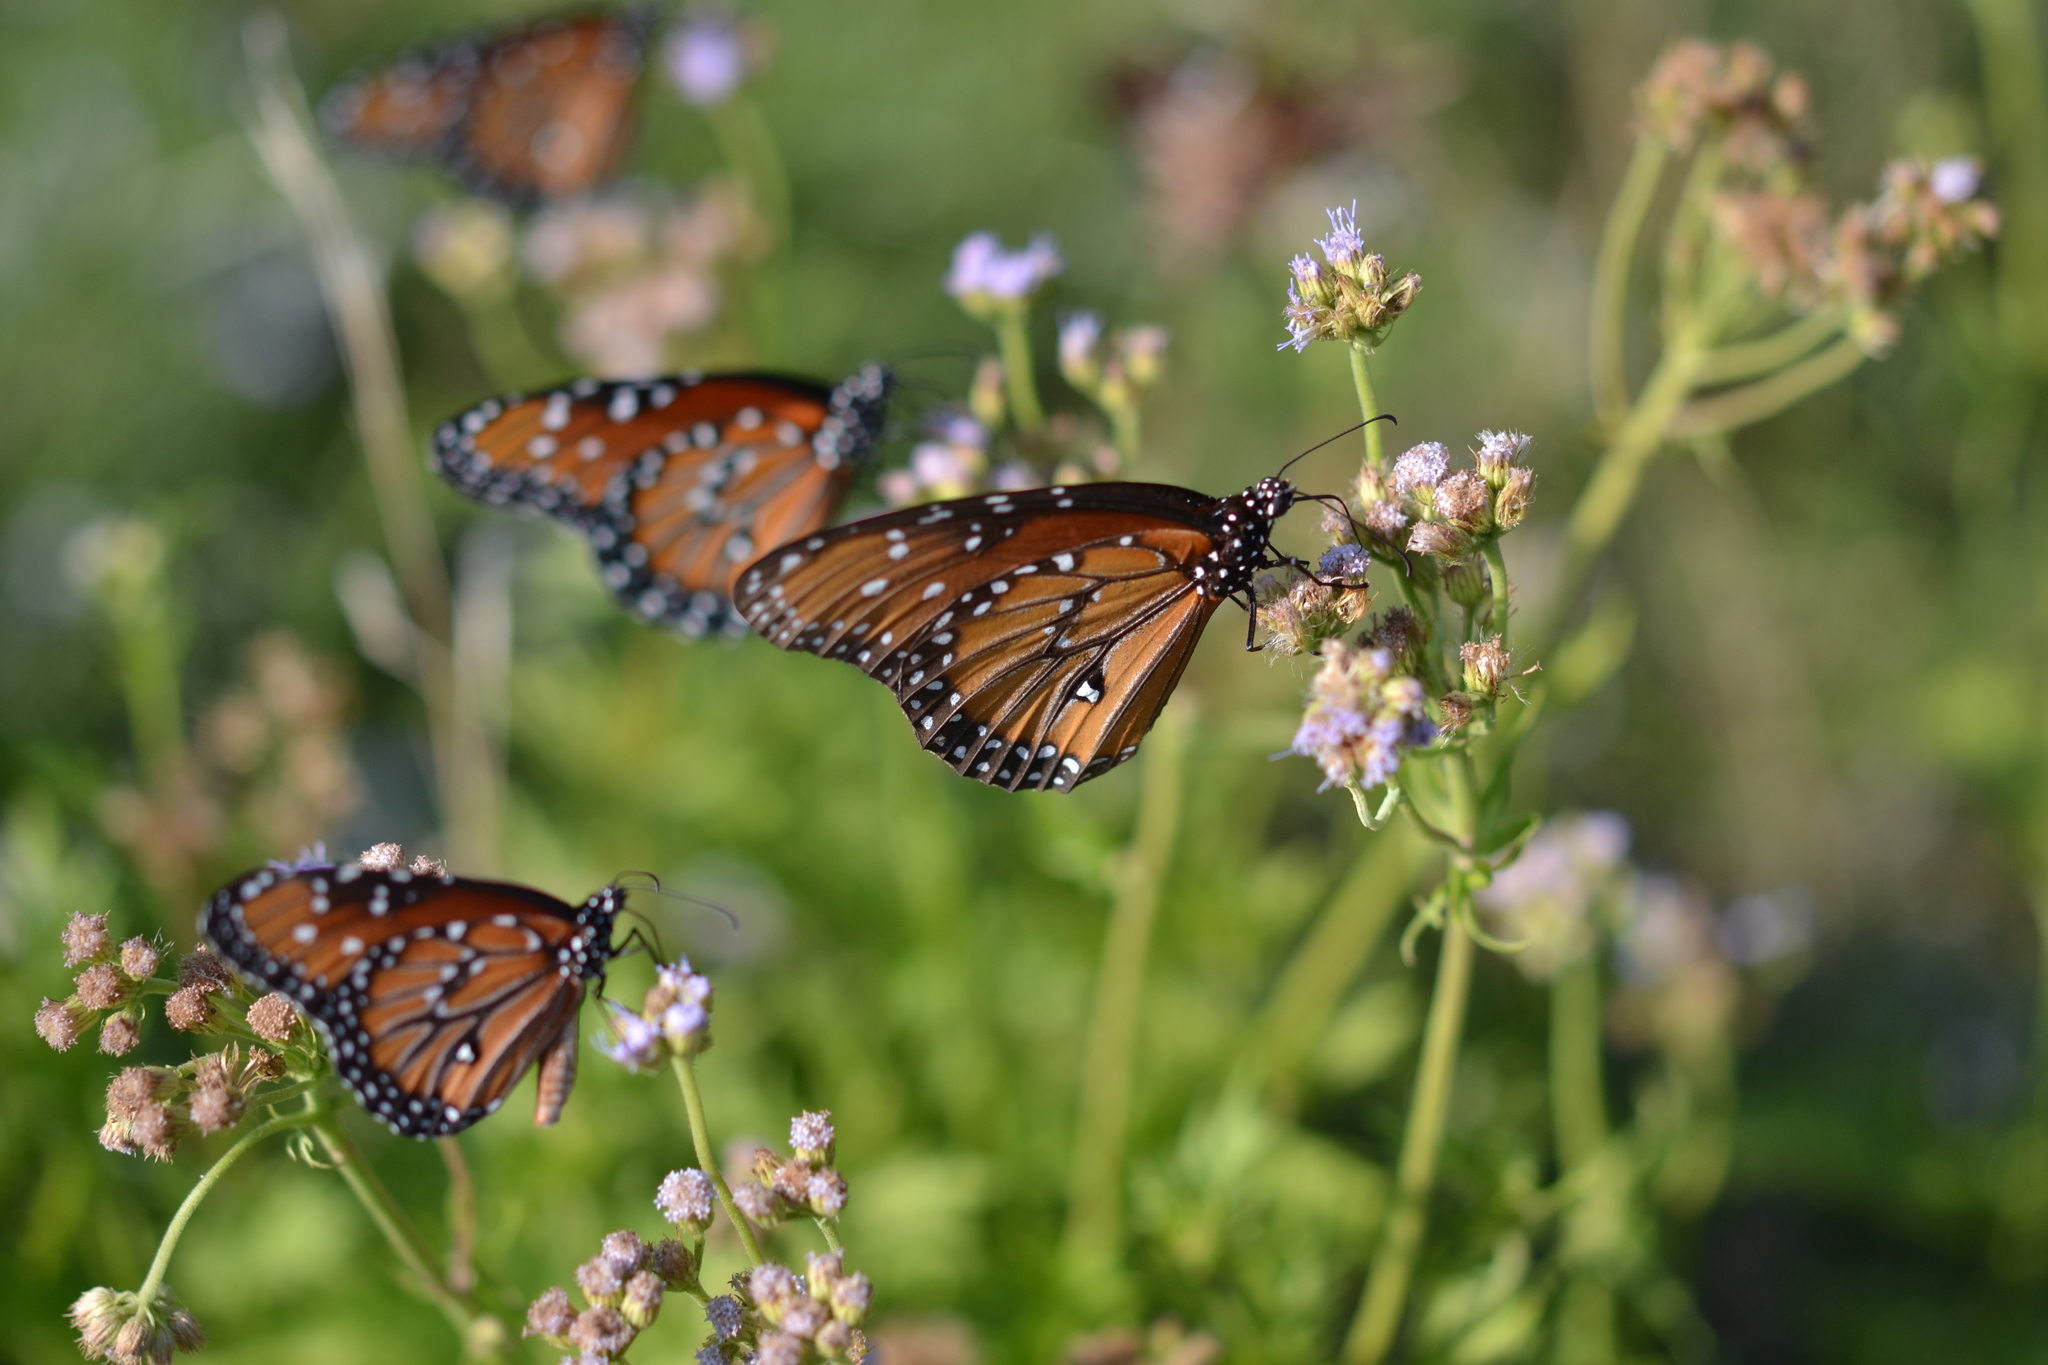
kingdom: Animalia
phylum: Arthropoda
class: Insecta
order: Lepidoptera
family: Nymphalidae
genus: Danaus
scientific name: Danaus gilippus
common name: Queen
